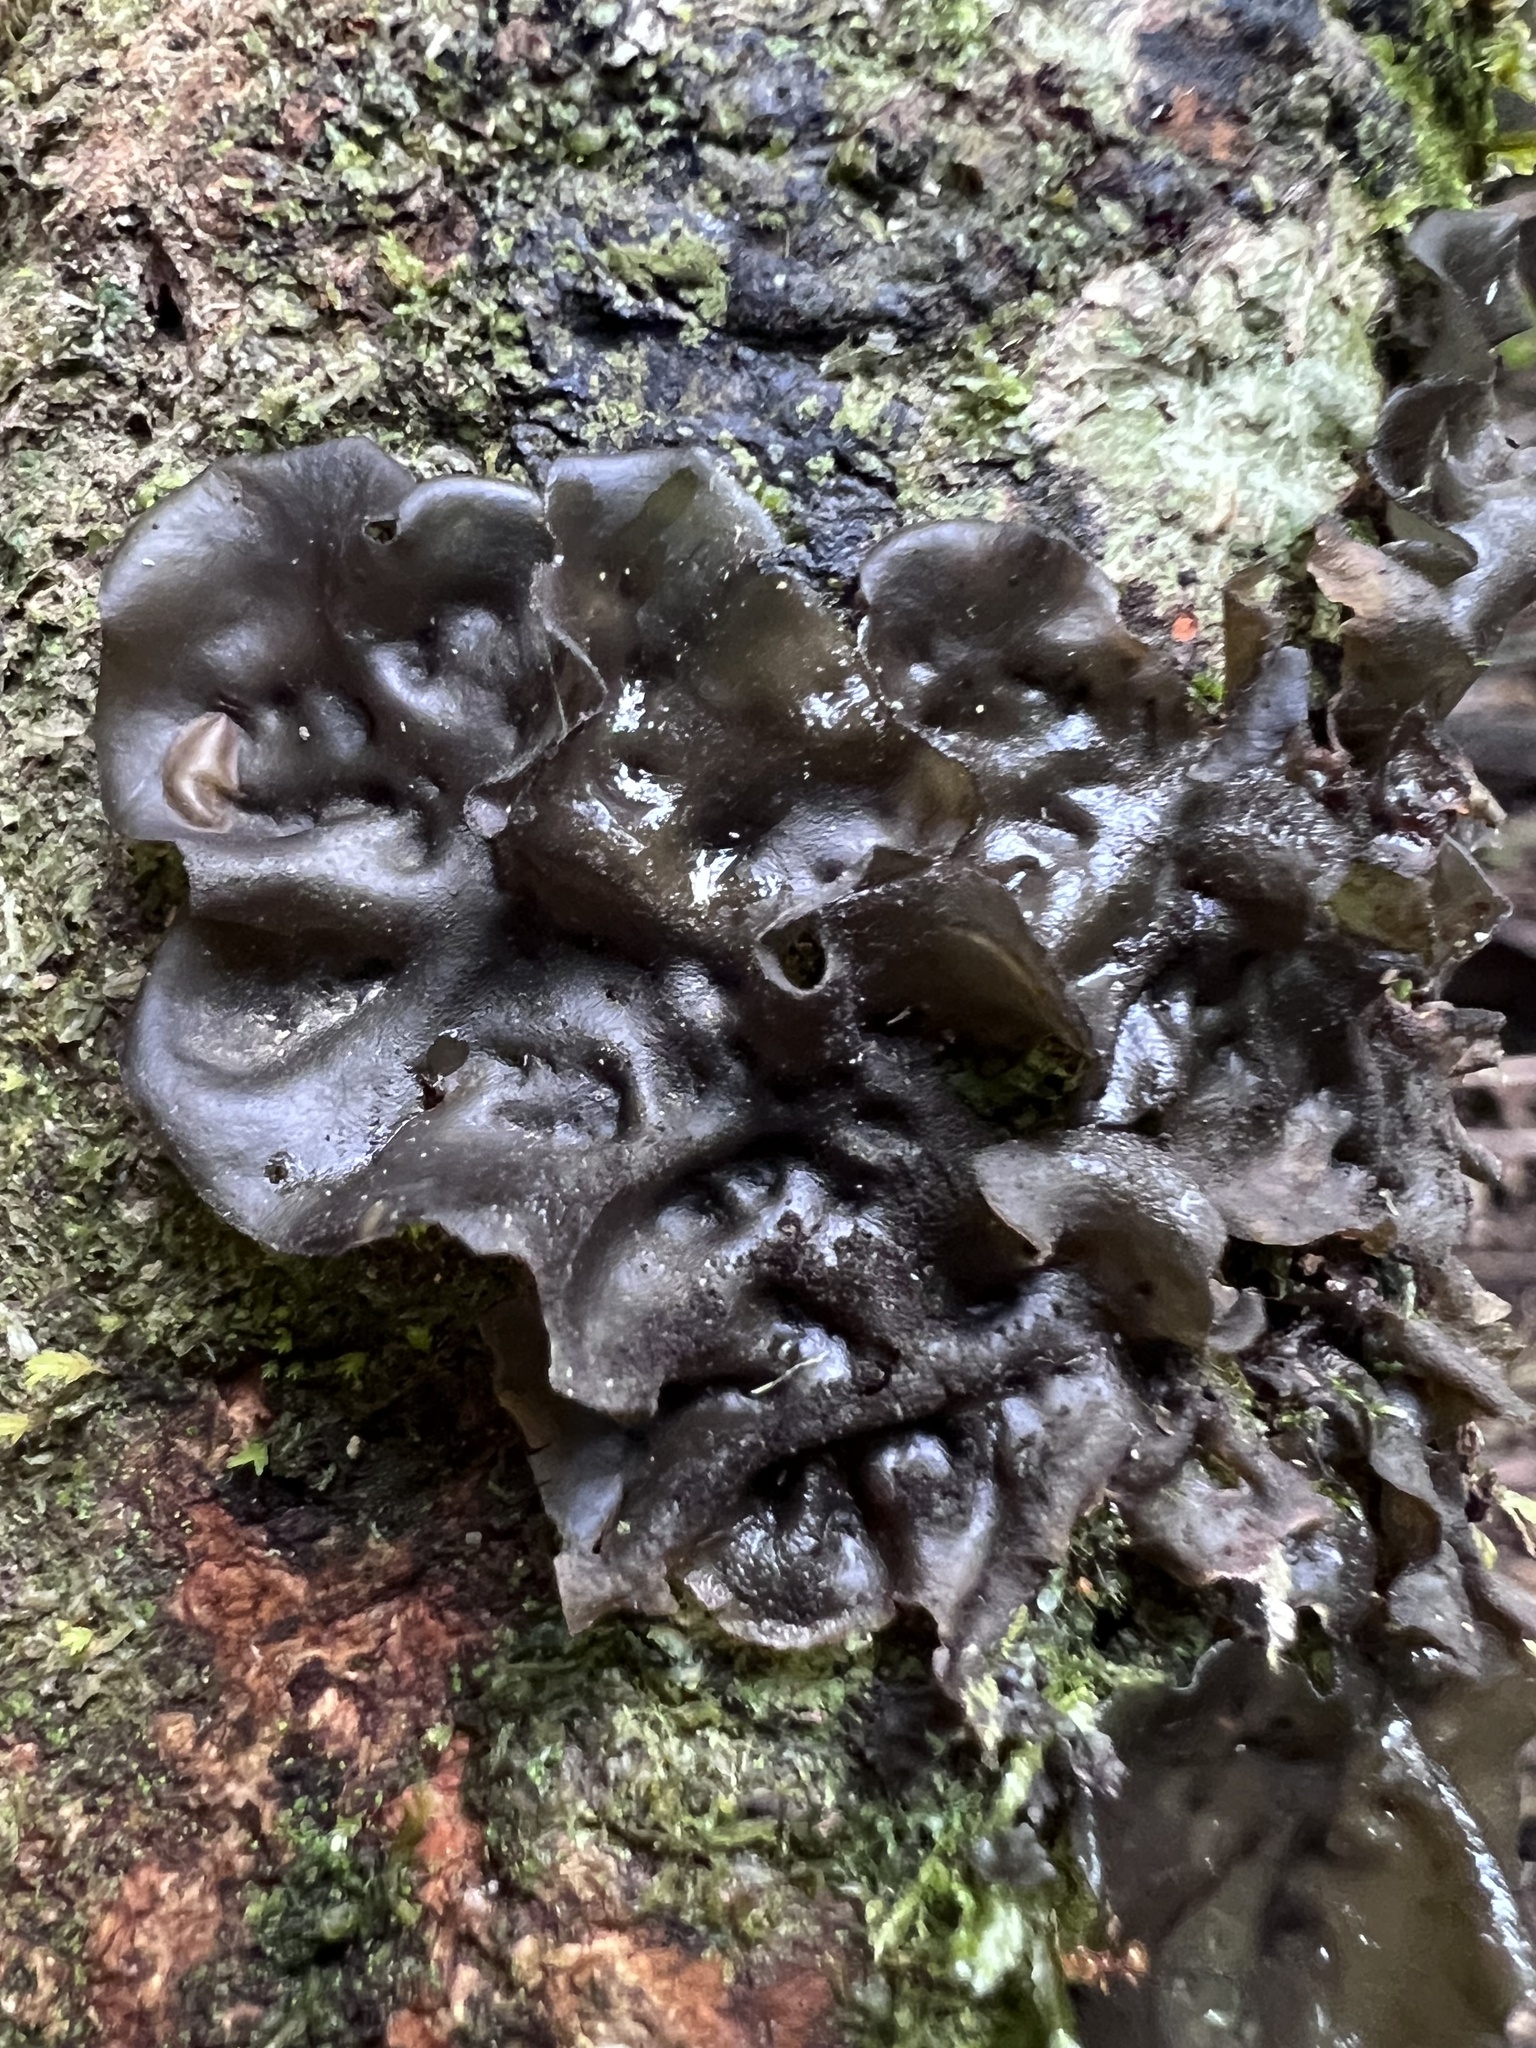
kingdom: Fungi
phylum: Ascomycota
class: Lecanoromycetes
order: Peltigerales
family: Collemataceae
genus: Leptogium
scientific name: Leptogium cyanescens
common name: Blue jellyskin
